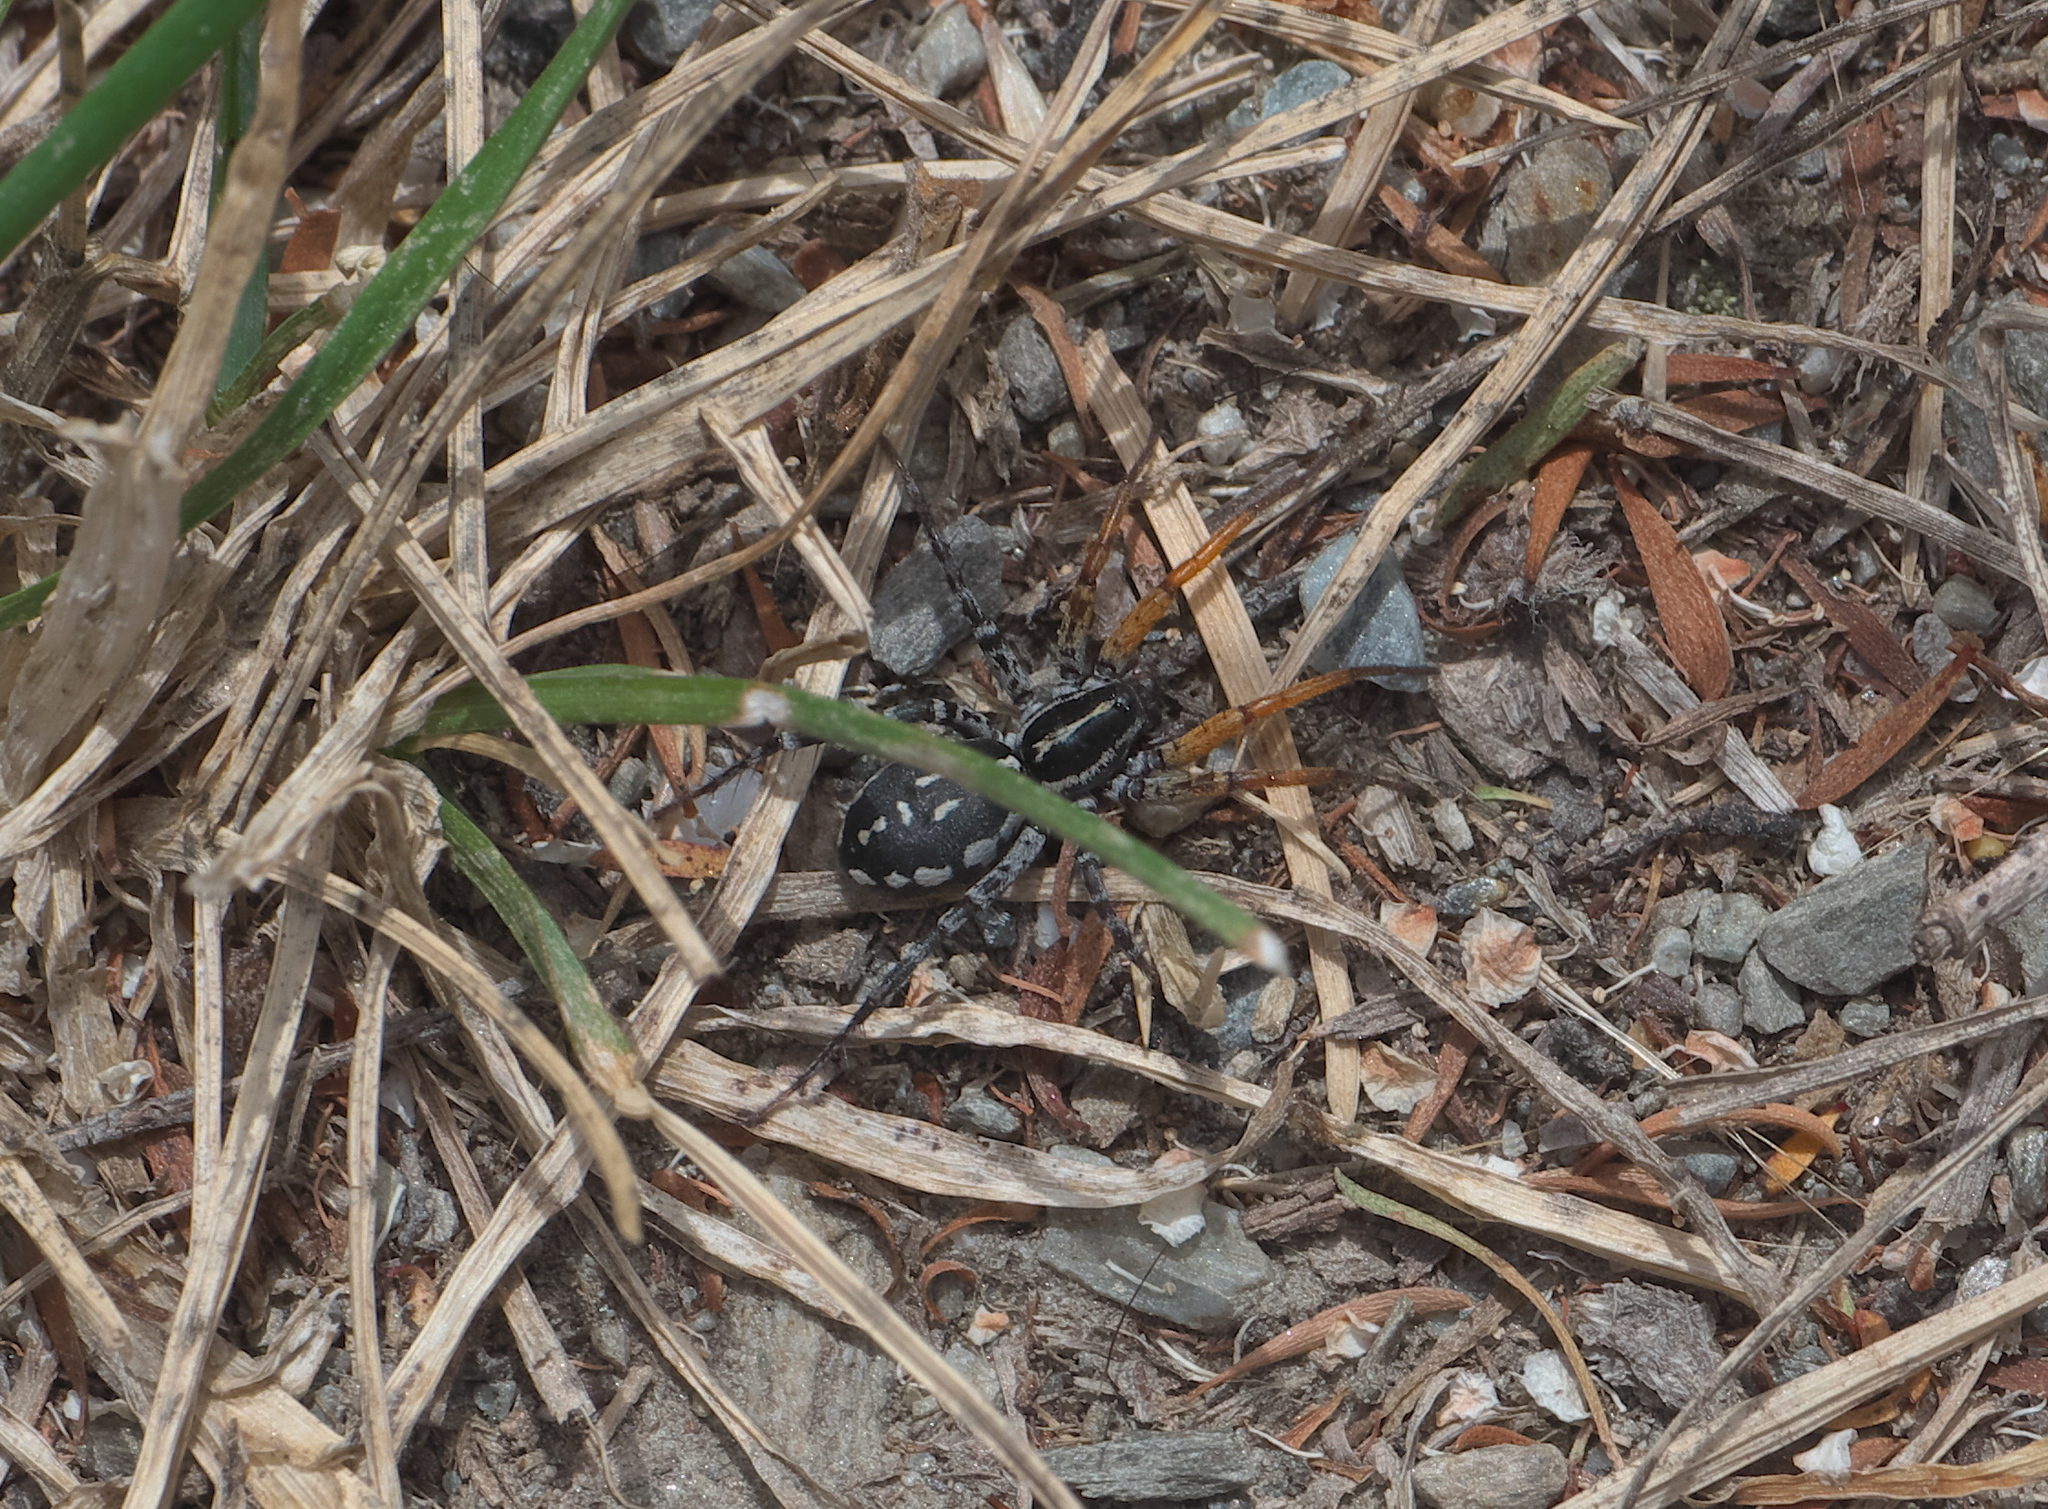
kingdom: Animalia
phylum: Arthropoda
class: Arachnida
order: Araneae
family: Corinnidae
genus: Nyssus
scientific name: Nyssus coloripes
